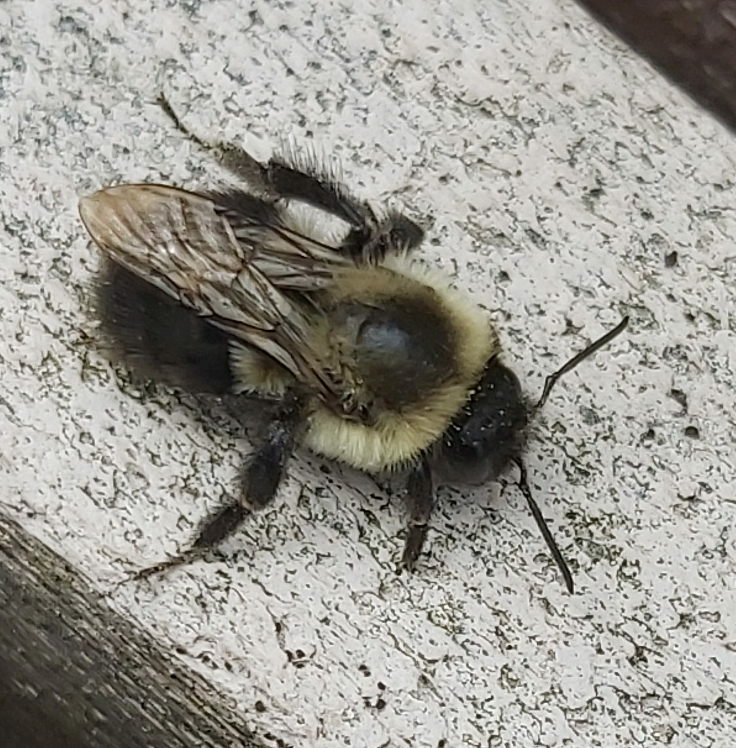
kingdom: Animalia
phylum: Arthropoda
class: Insecta
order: Hymenoptera
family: Apidae
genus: Bombus
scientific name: Bombus impatiens
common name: Common eastern bumble bee
